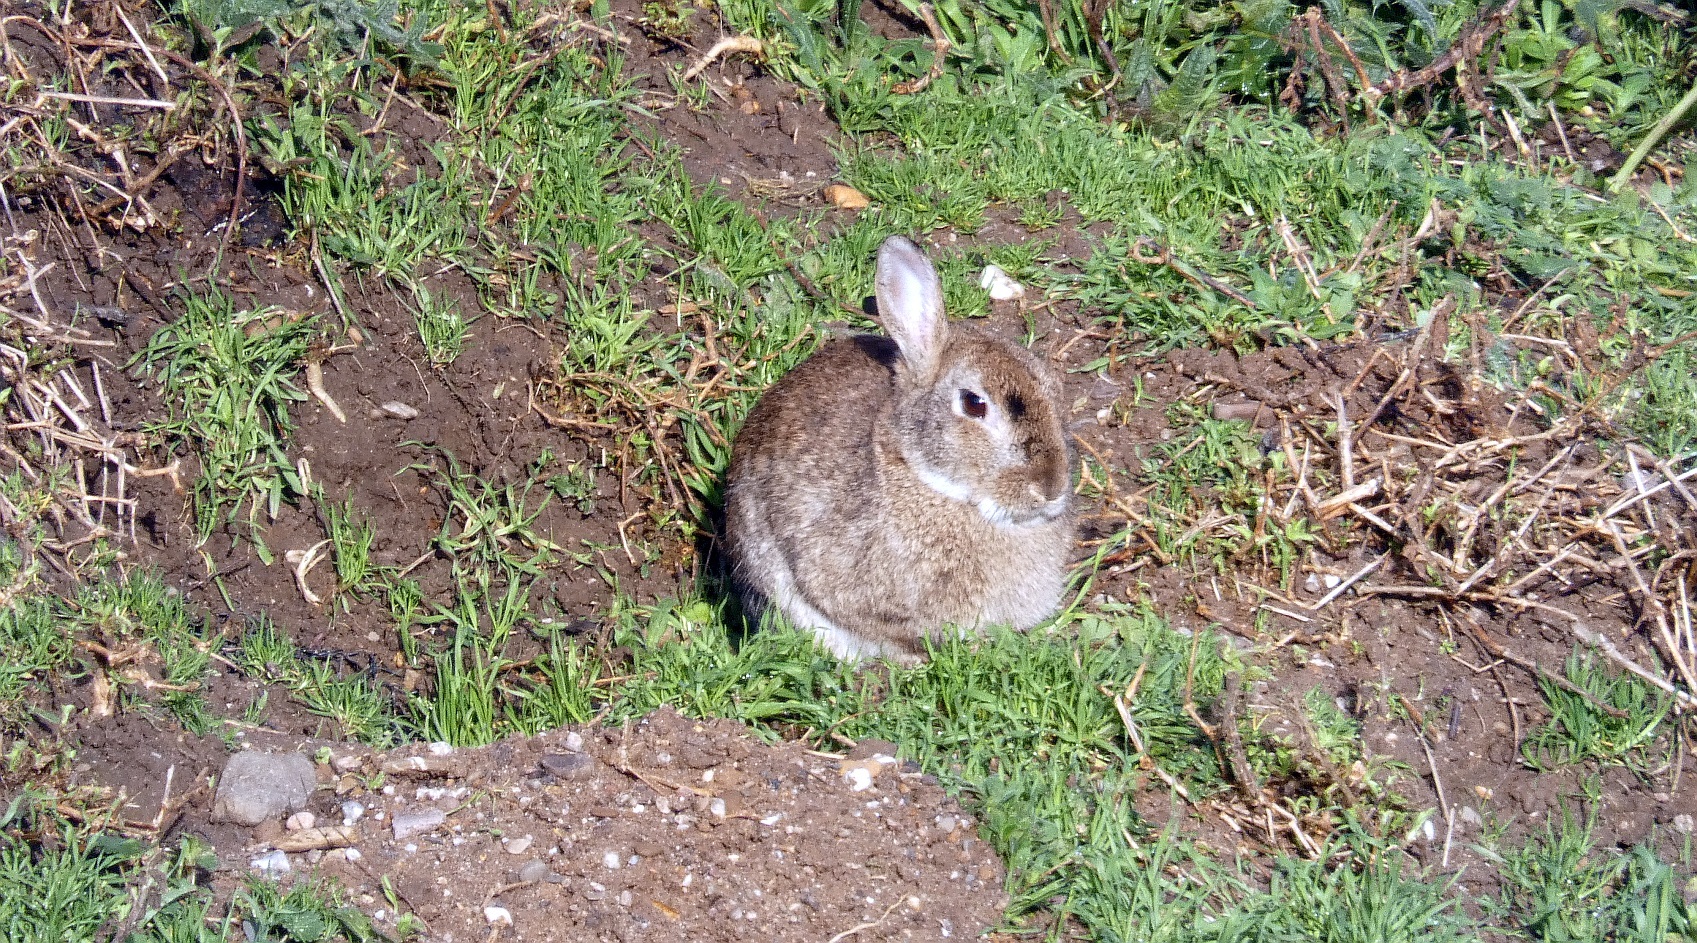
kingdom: Animalia
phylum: Chordata
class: Mammalia
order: Lagomorpha
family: Leporidae
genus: Oryctolagus
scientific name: Oryctolagus cuniculus
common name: European rabbit
